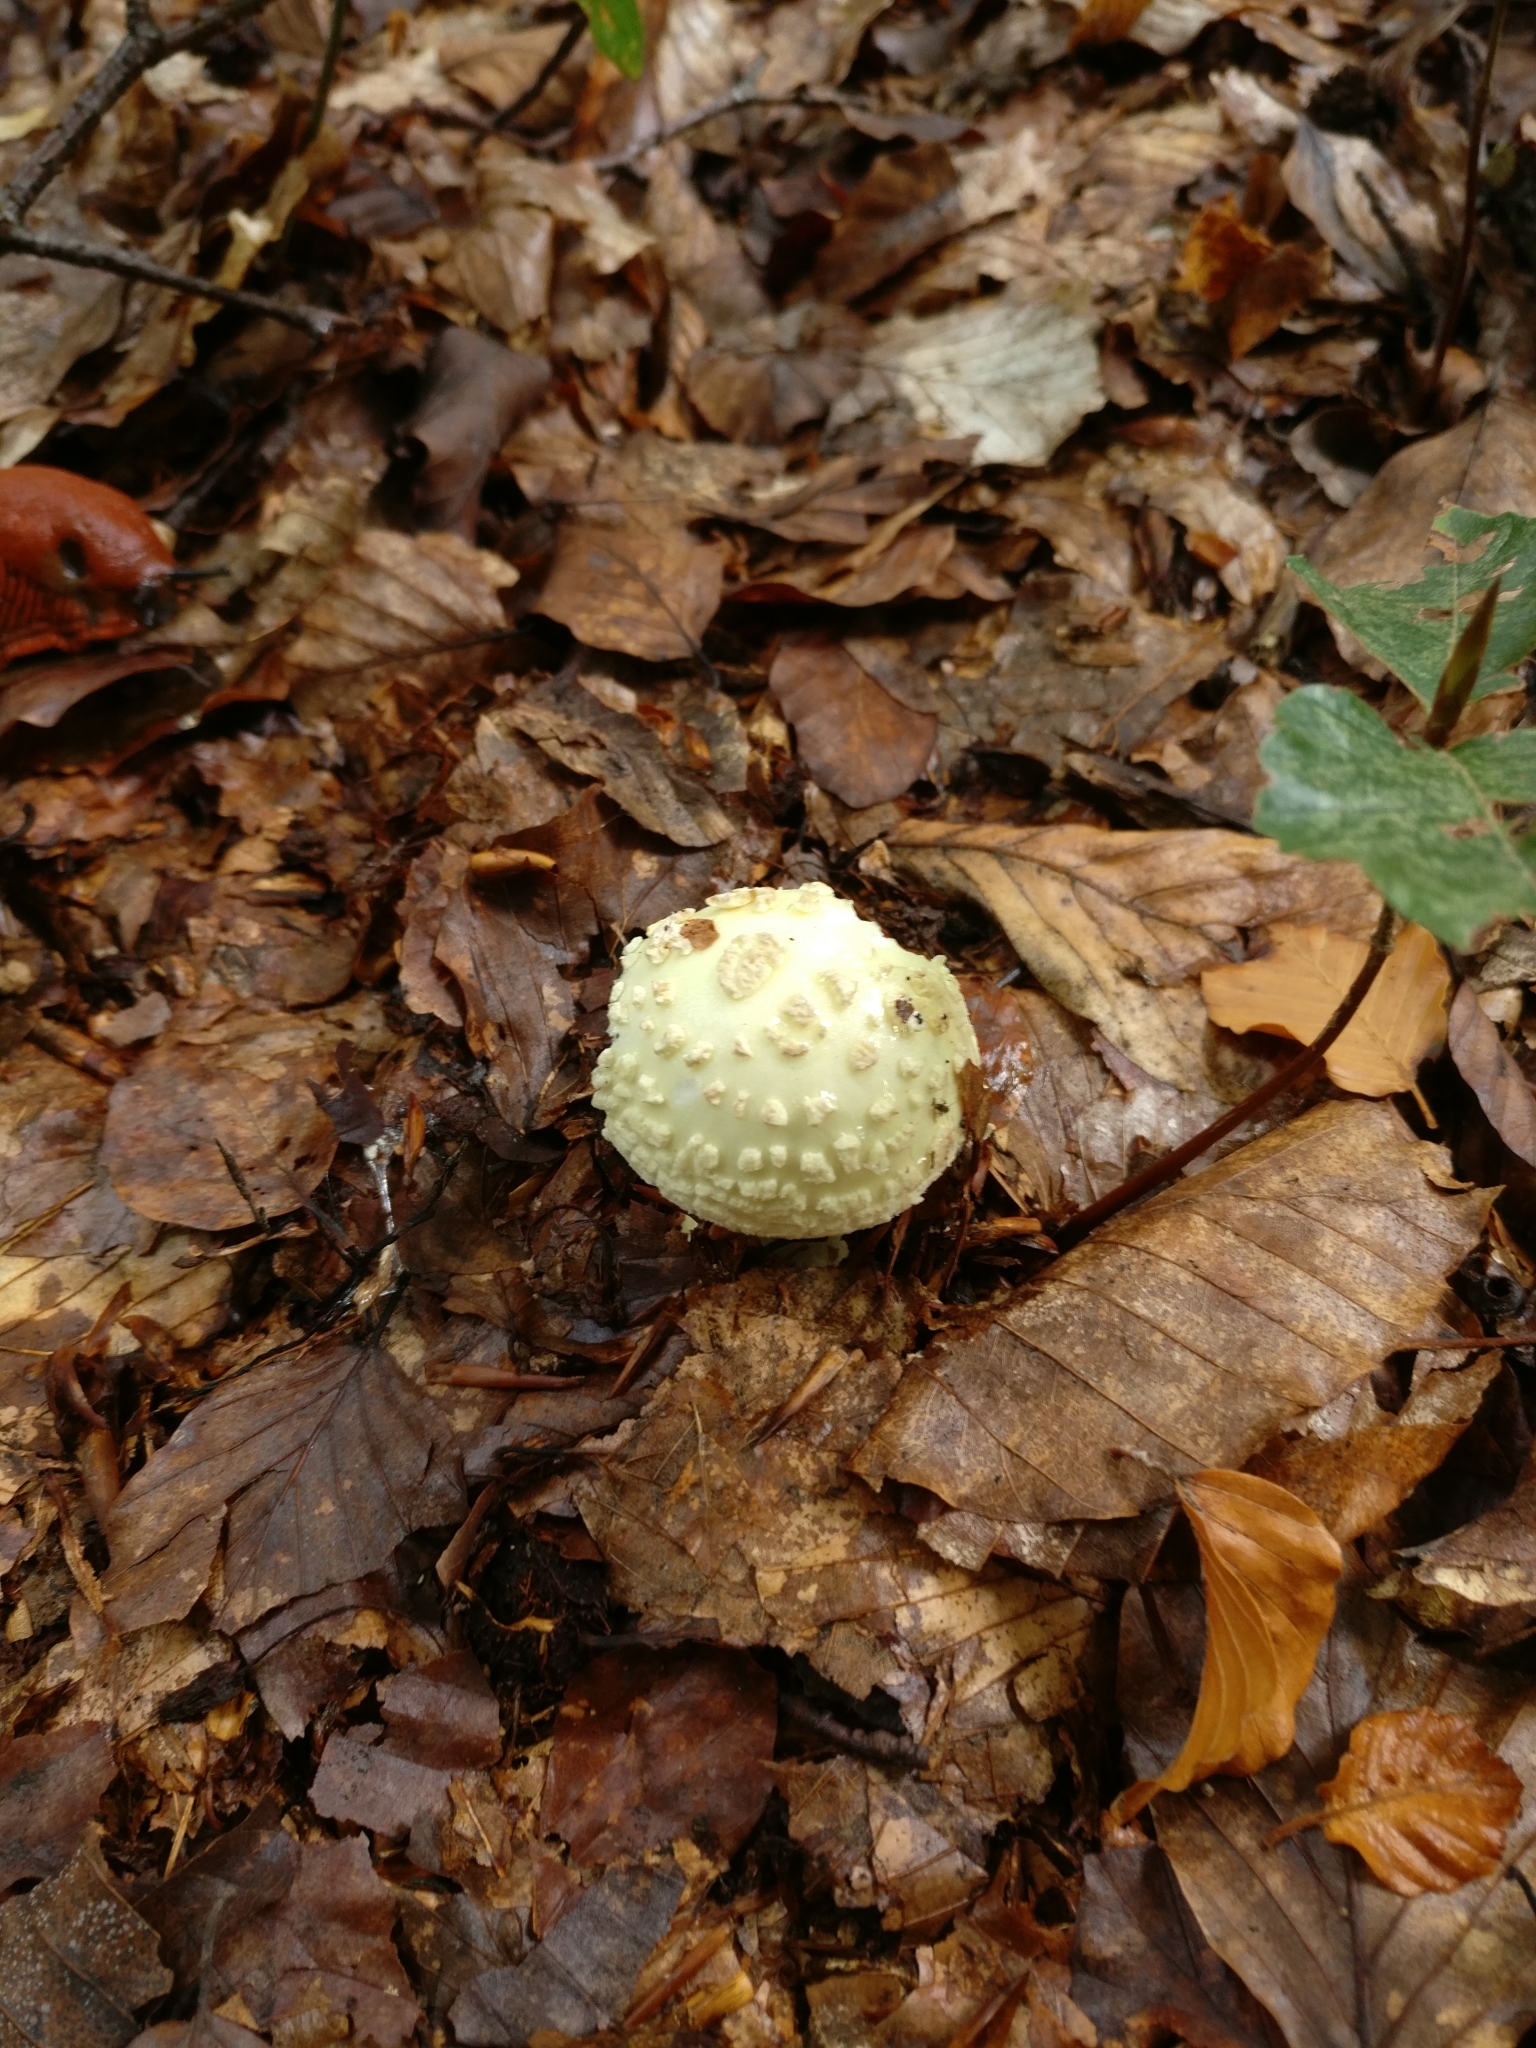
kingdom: Fungi
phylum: Basidiomycota
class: Agaricomycetes
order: Agaricales
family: Amanitaceae
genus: Amanita
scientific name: Amanita citrina
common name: False death-cap
